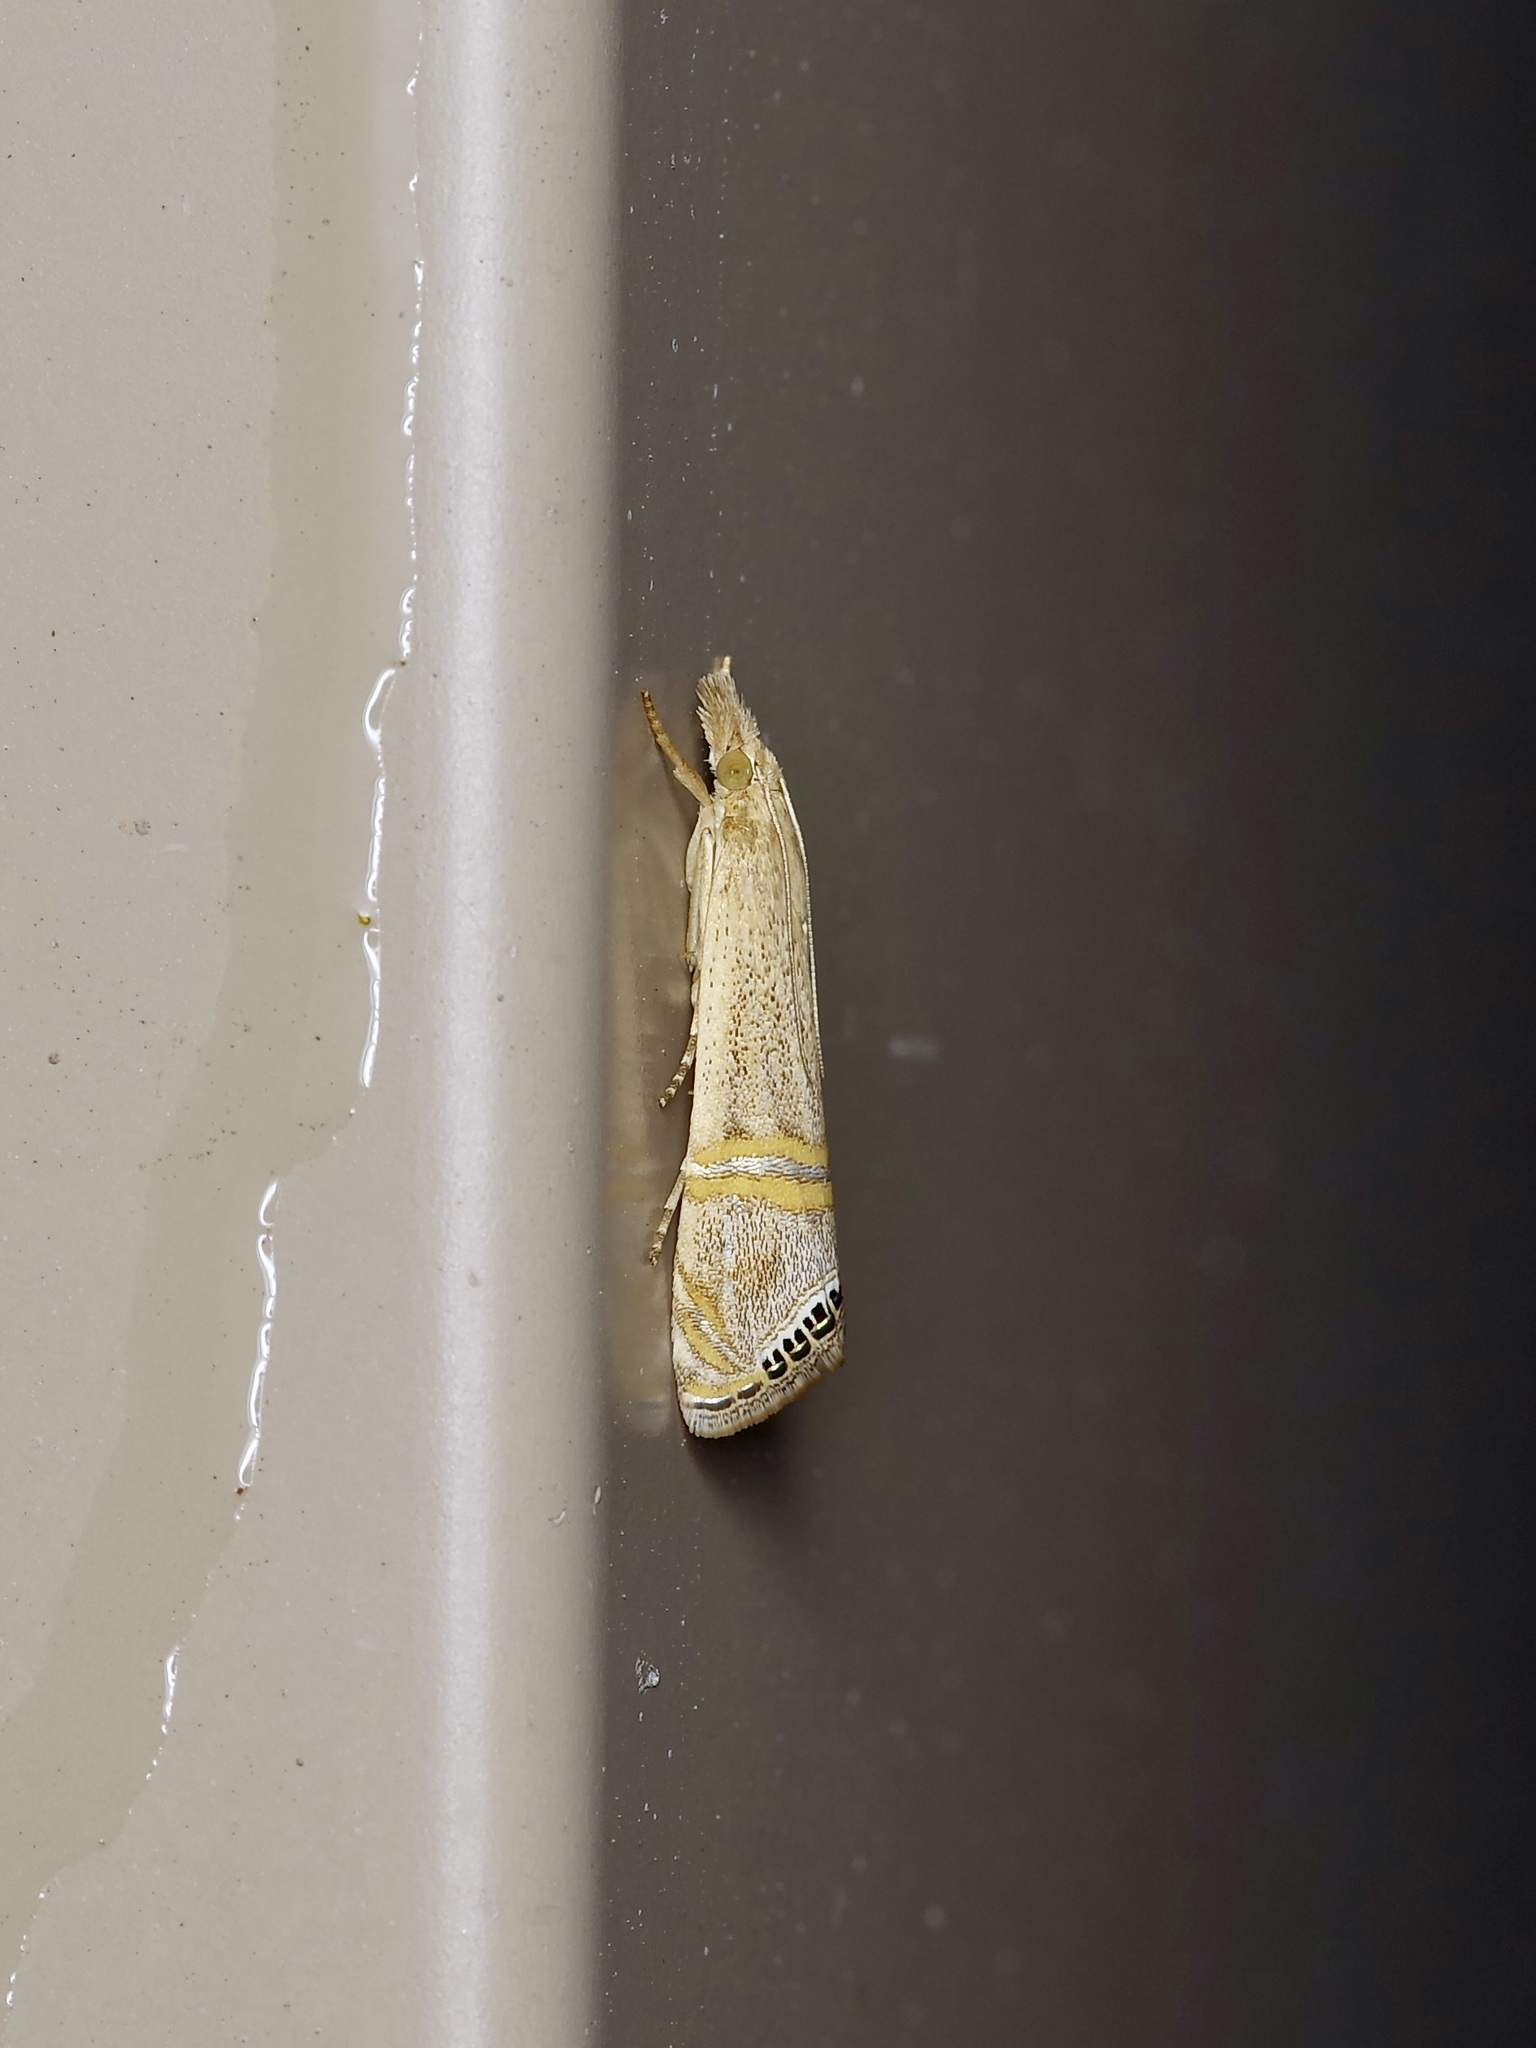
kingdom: Animalia
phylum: Arthropoda
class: Insecta
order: Lepidoptera
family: Crambidae
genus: Euchromius
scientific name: Euchromius ocellea
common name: Necklace veneer moth
